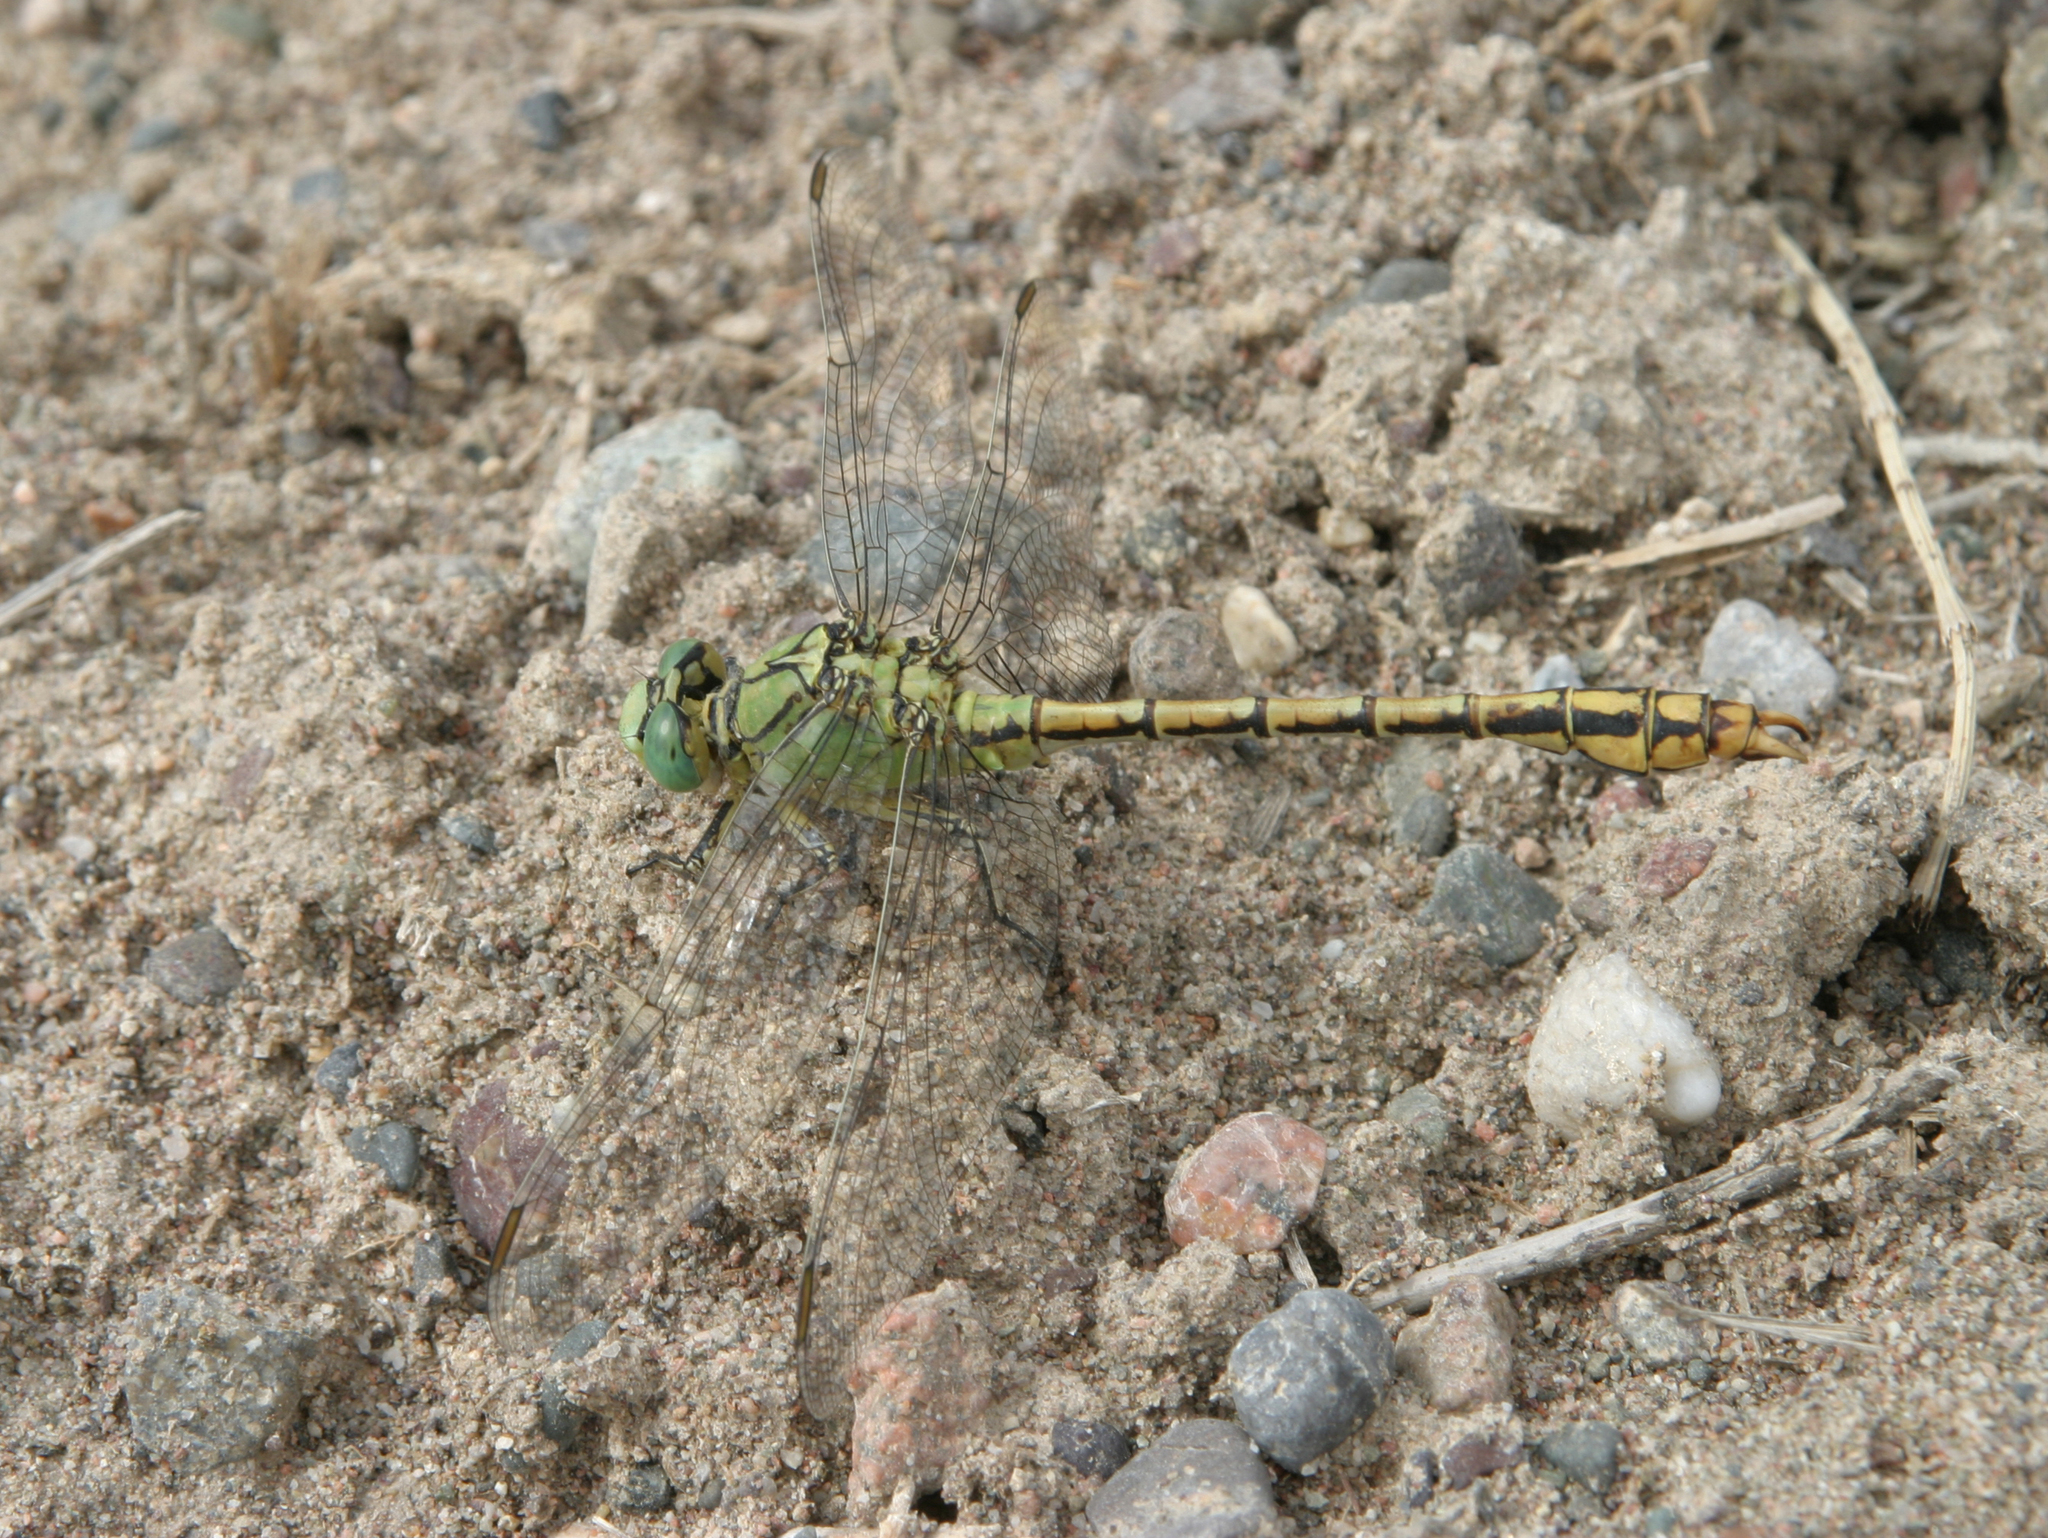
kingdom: Animalia
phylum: Arthropoda
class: Insecta
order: Odonata
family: Gomphidae
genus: Ophiogomphus
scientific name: Ophiogomphus reductus
